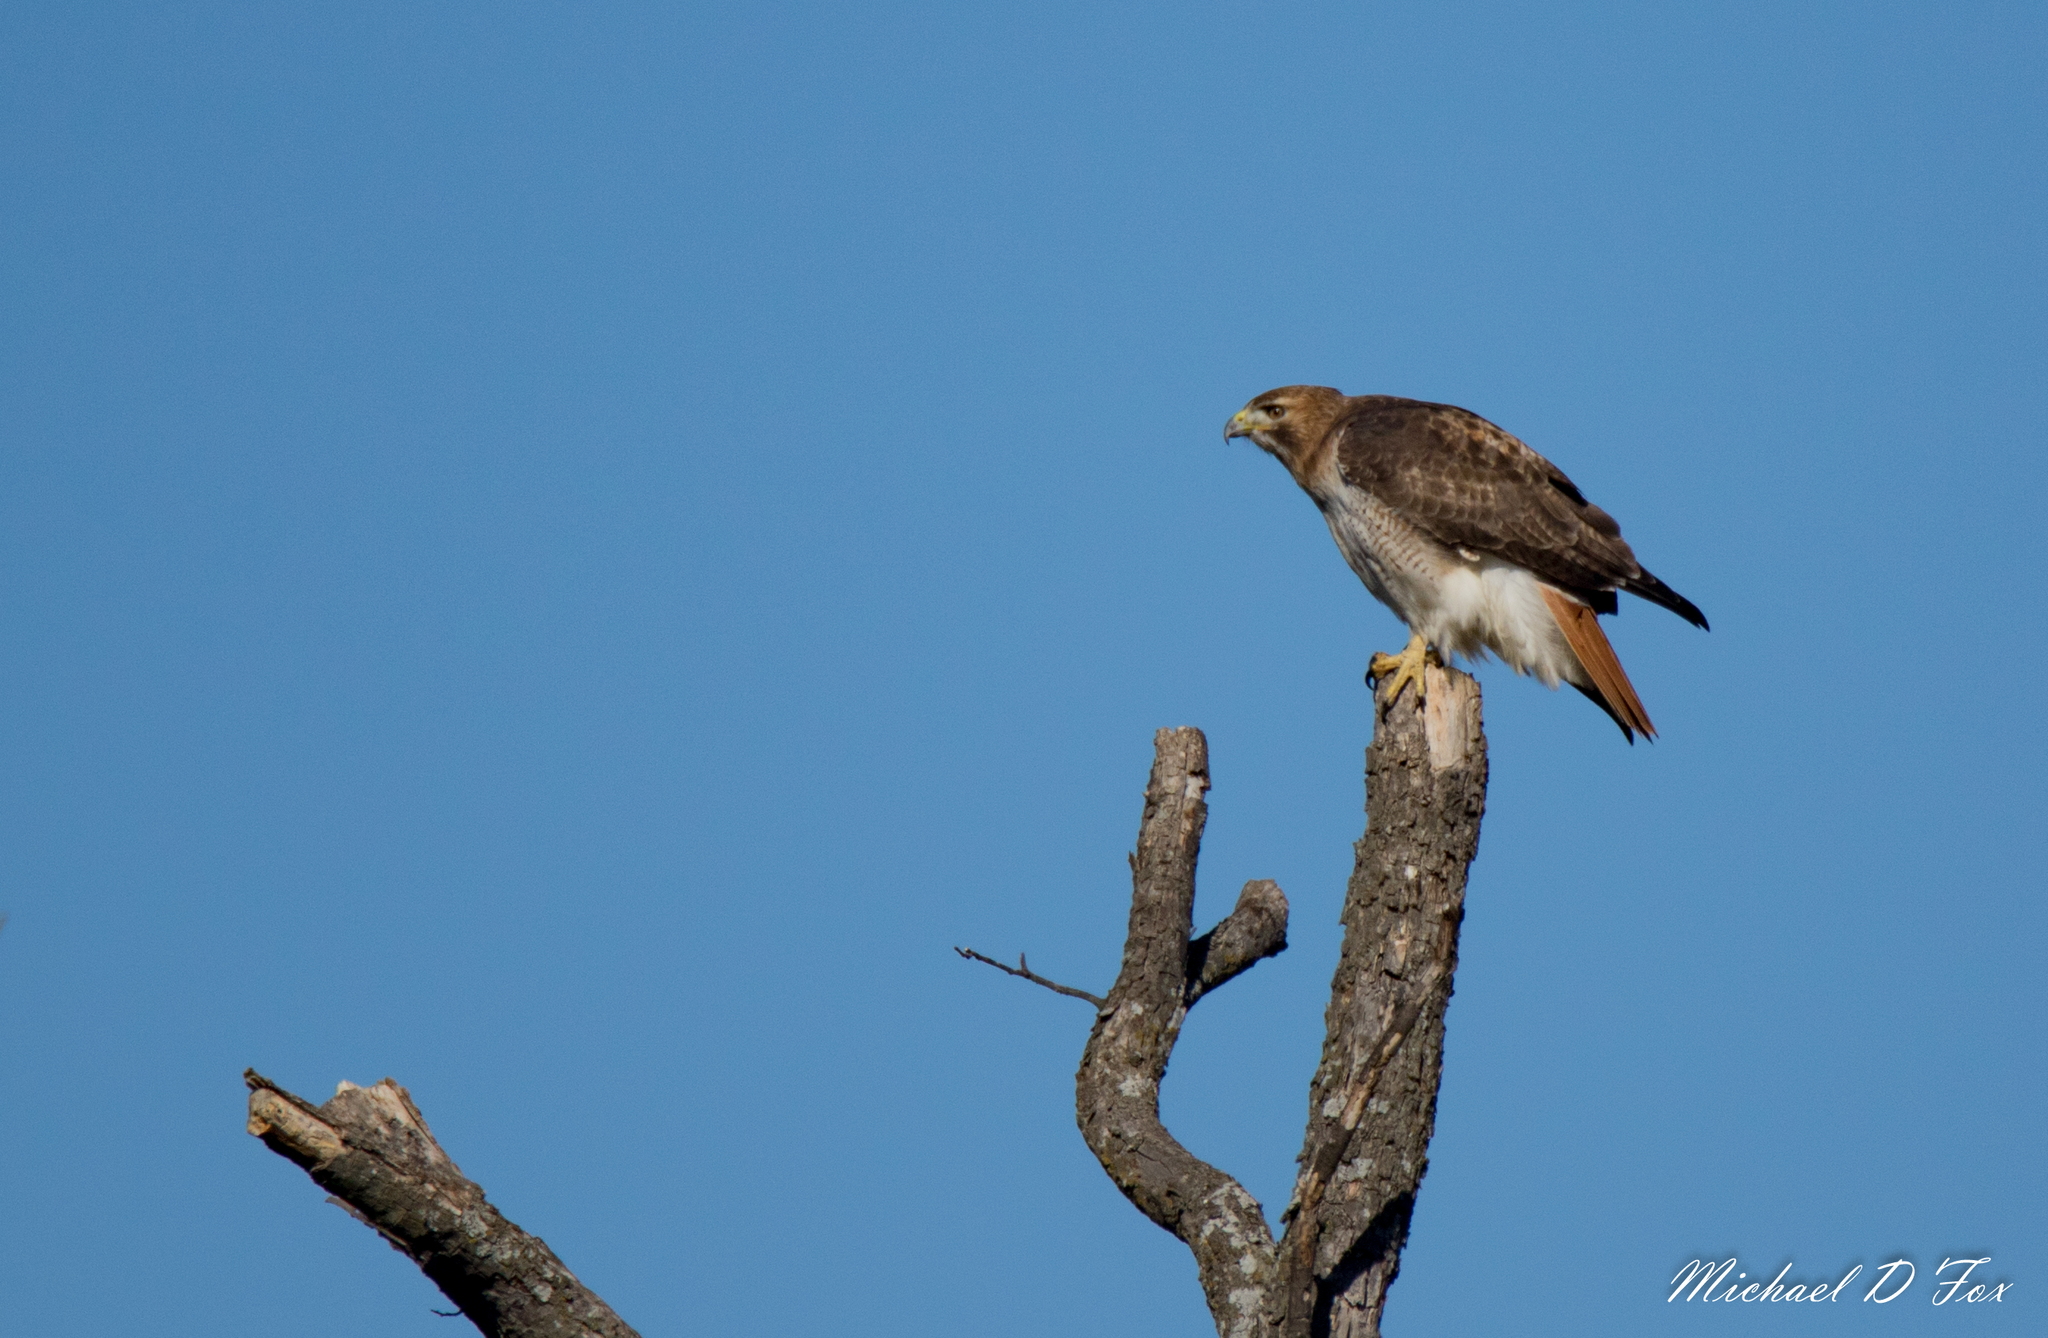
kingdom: Animalia
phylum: Chordata
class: Aves
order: Accipitriformes
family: Accipitridae
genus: Buteo
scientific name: Buteo jamaicensis
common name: Red-tailed hawk
